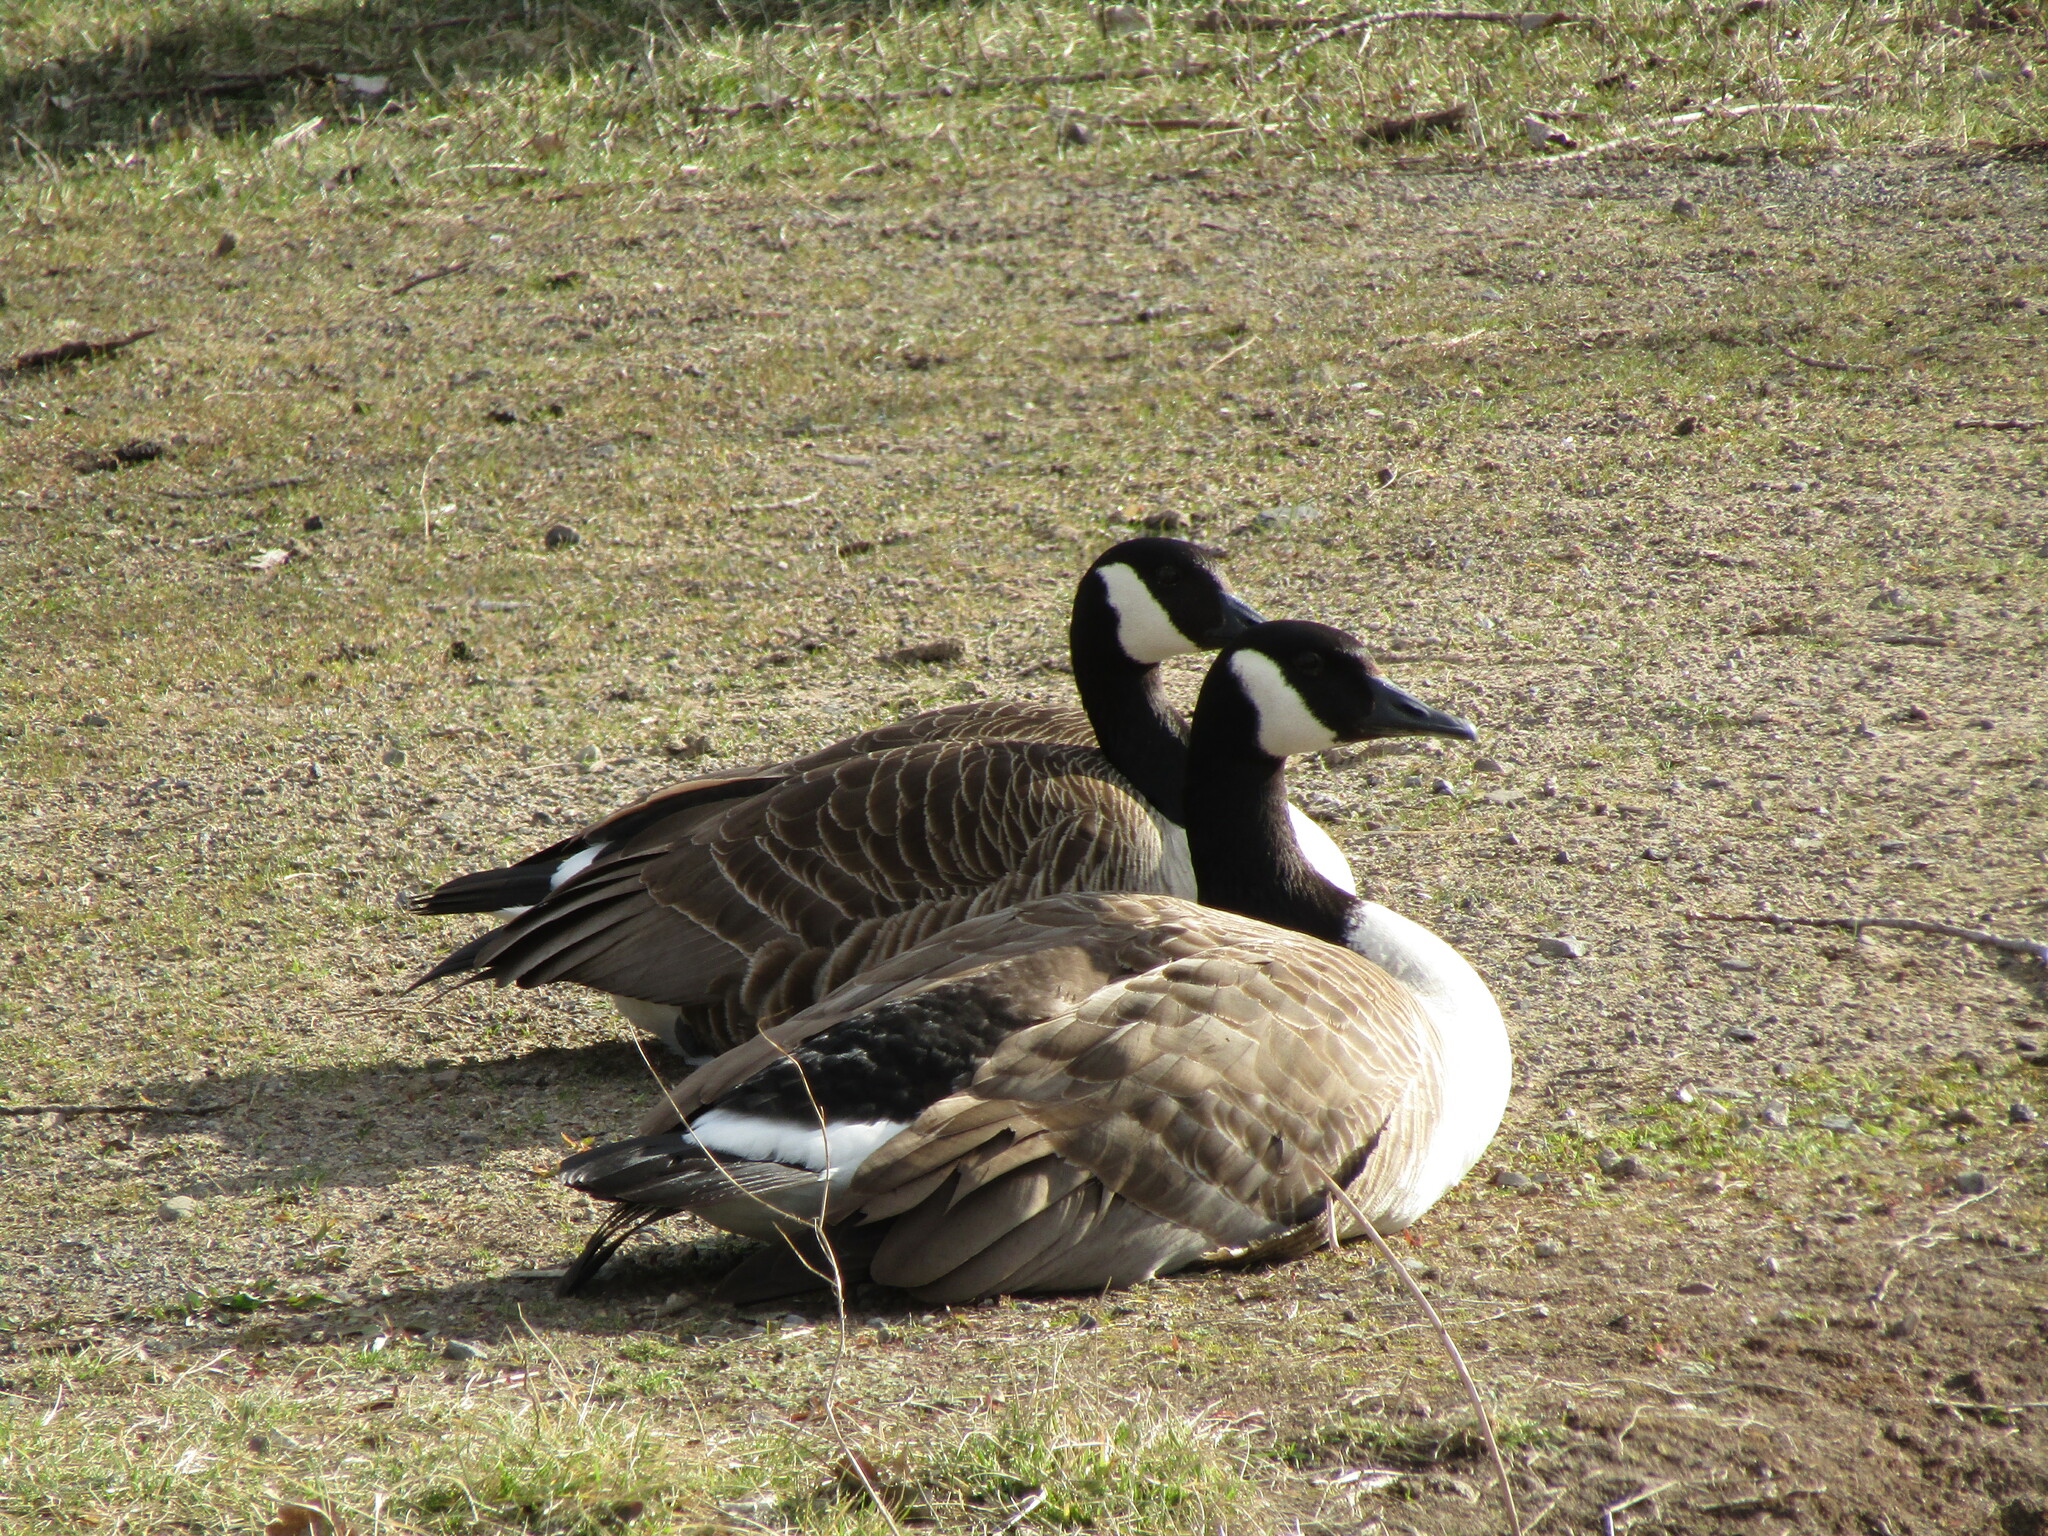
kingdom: Animalia
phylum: Chordata
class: Aves
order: Anseriformes
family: Anatidae
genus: Branta
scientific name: Branta canadensis
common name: Canada goose
